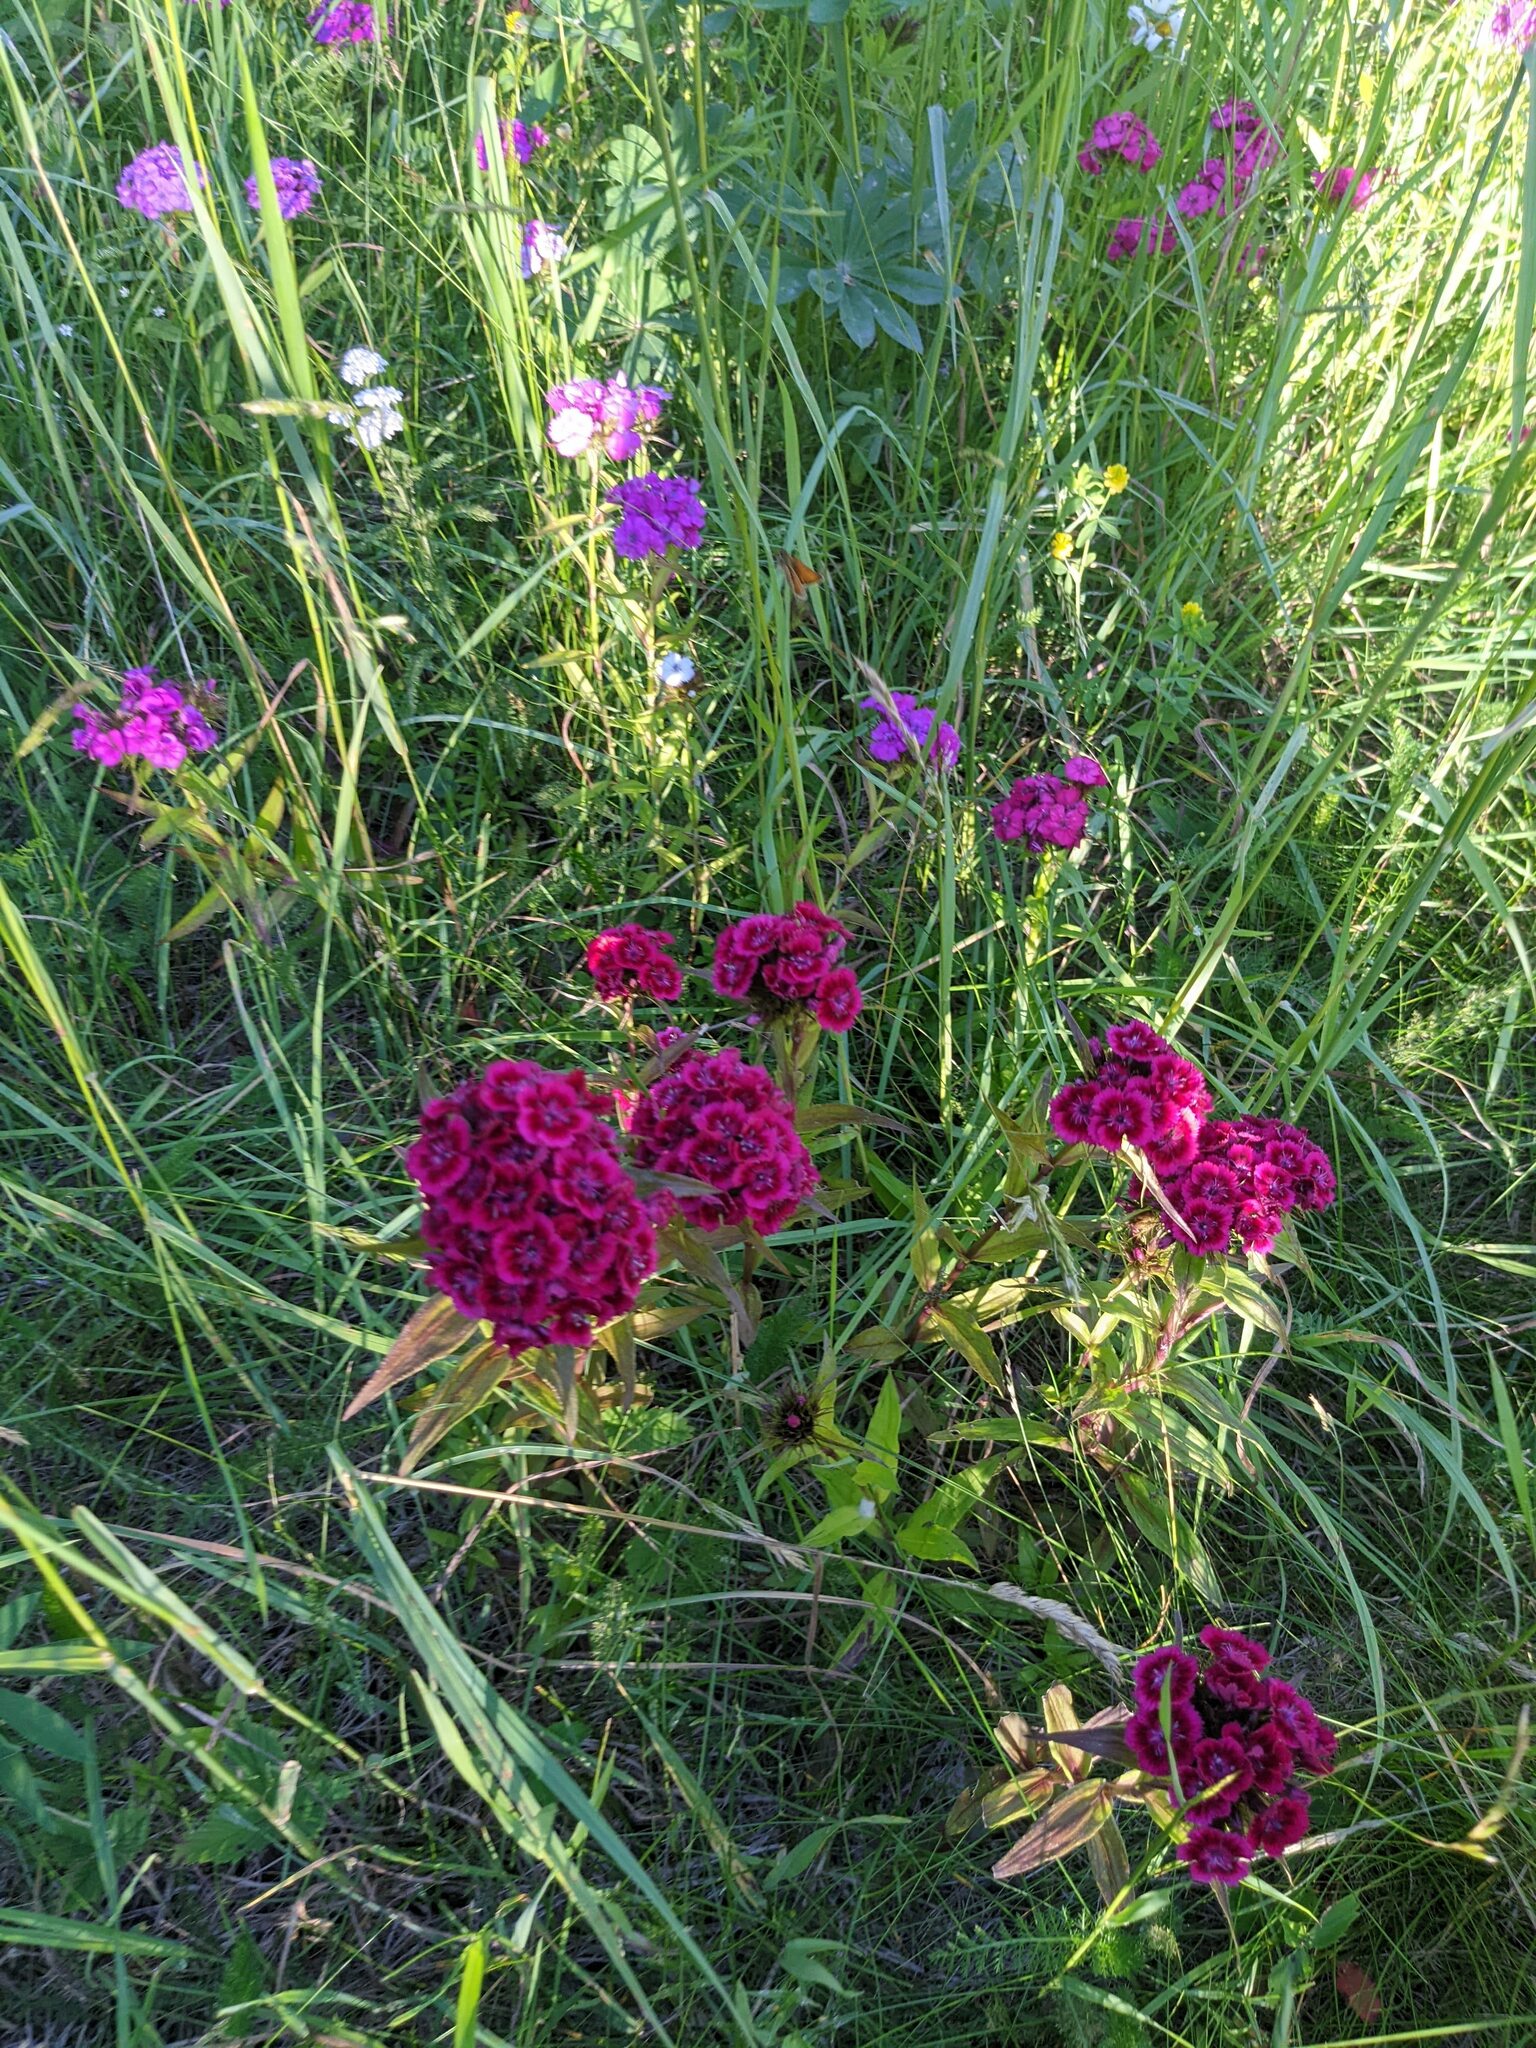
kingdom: Plantae
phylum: Tracheophyta
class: Magnoliopsida
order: Caryophyllales
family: Caryophyllaceae
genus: Dianthus
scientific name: Dianthus barbatus
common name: Sweet-william
